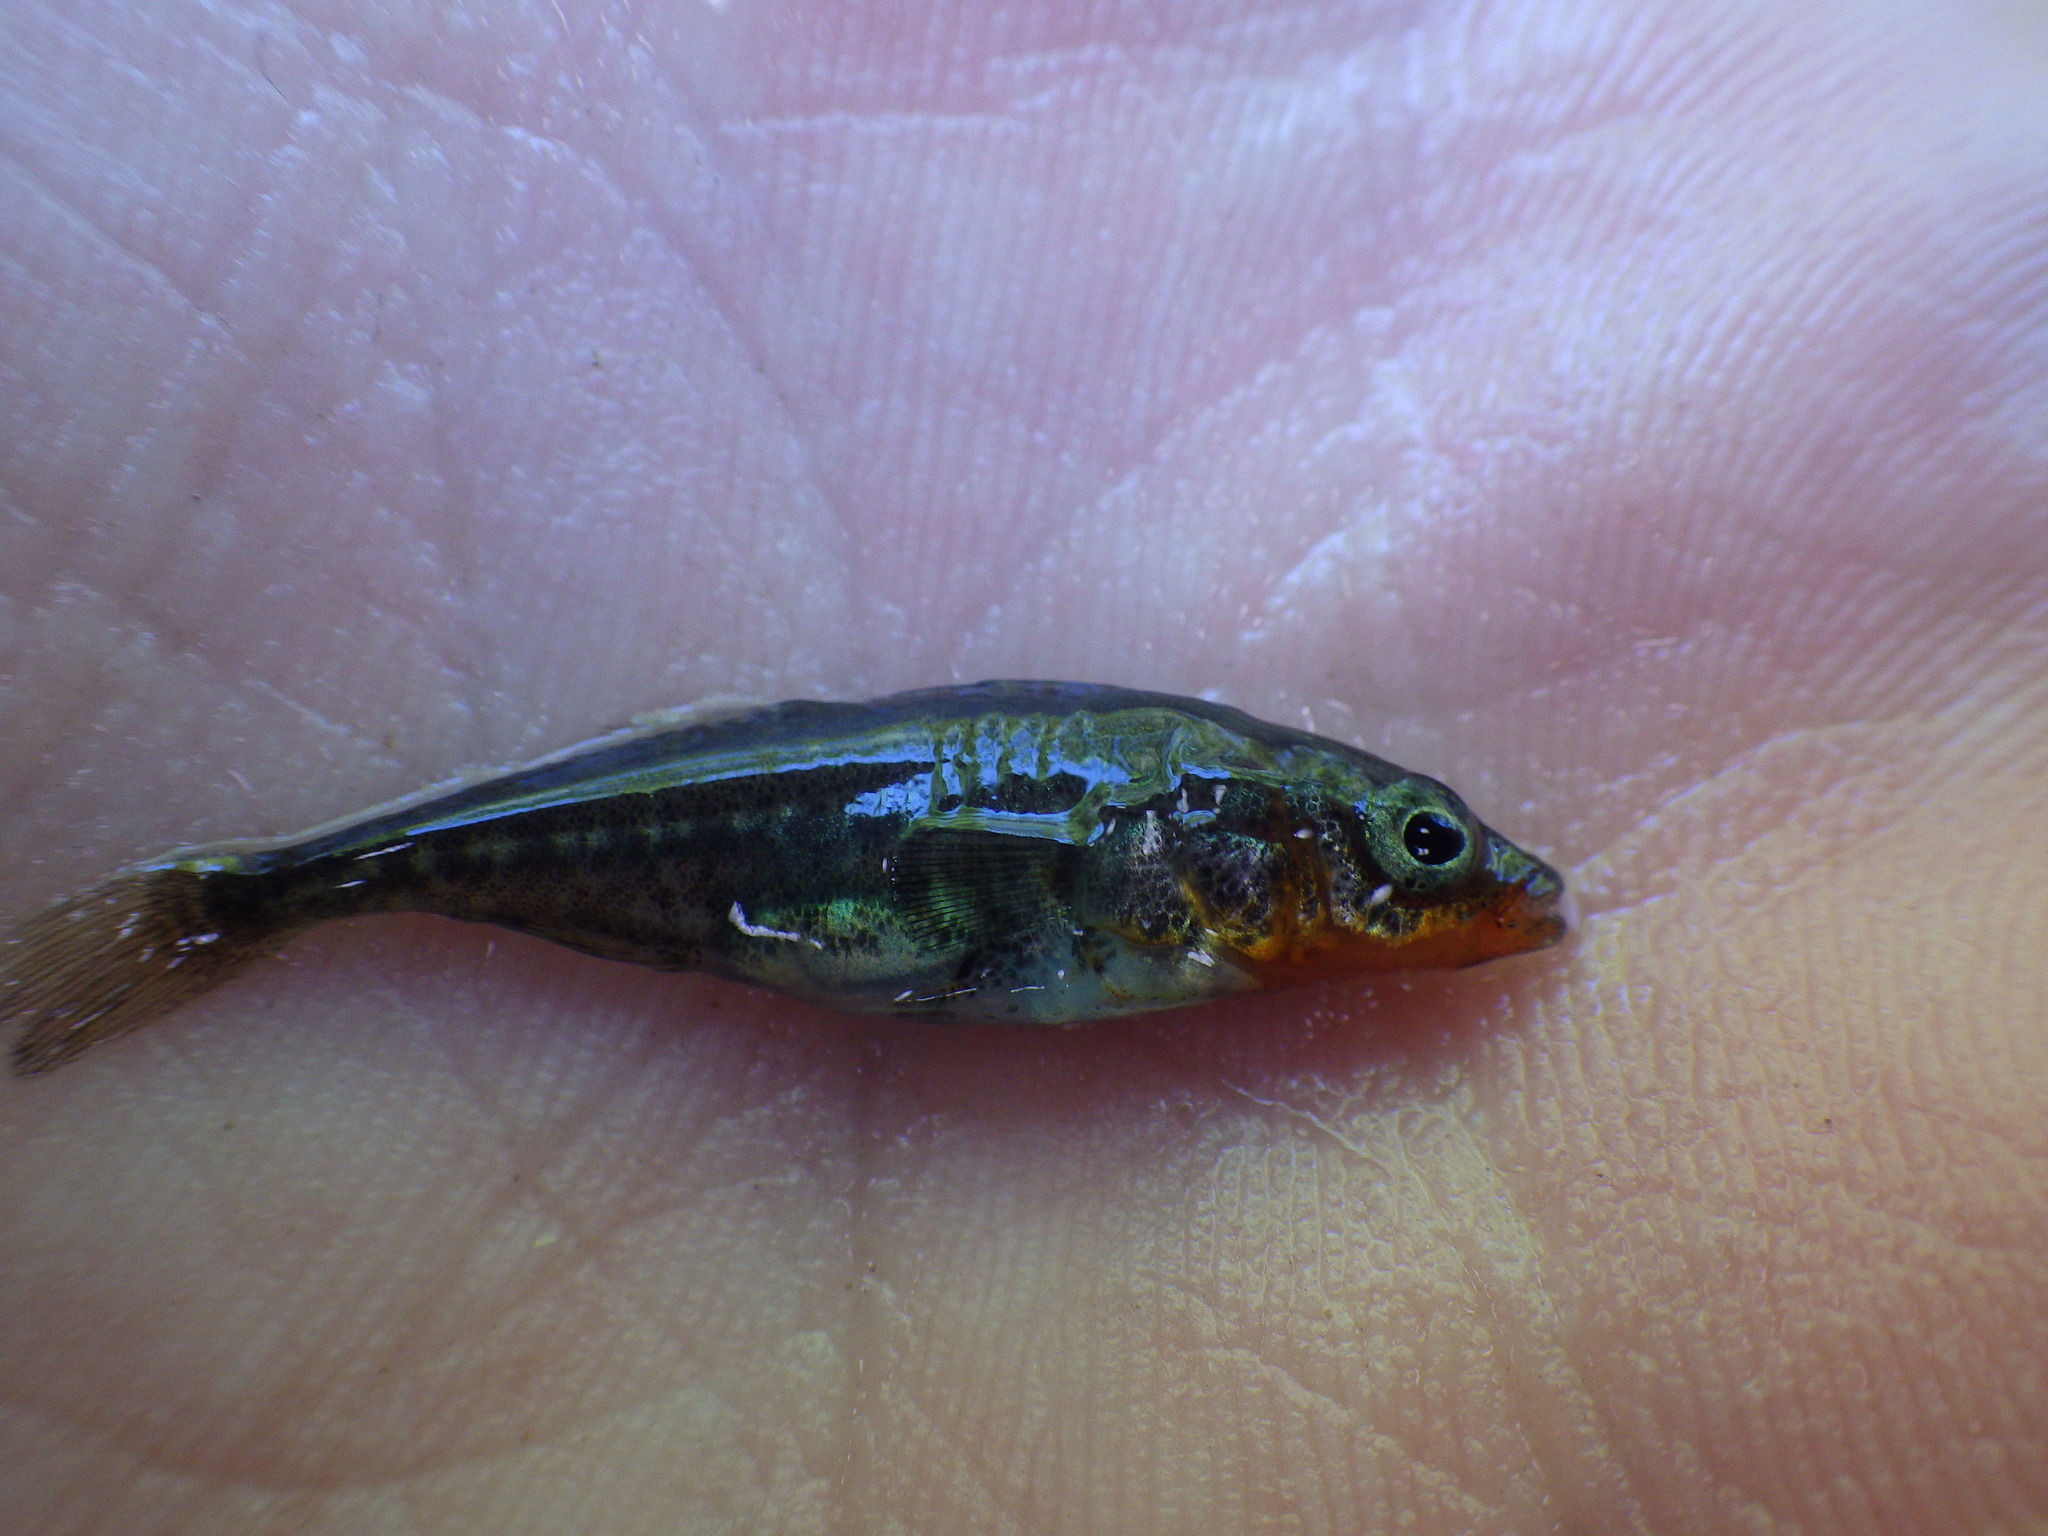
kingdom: Animalia
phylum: Chordata
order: Gasterosteiformes
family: Gasterosteidae
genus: Gasterosteus
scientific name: Gasterosteus aculeatus
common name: Three-spined stickleback
